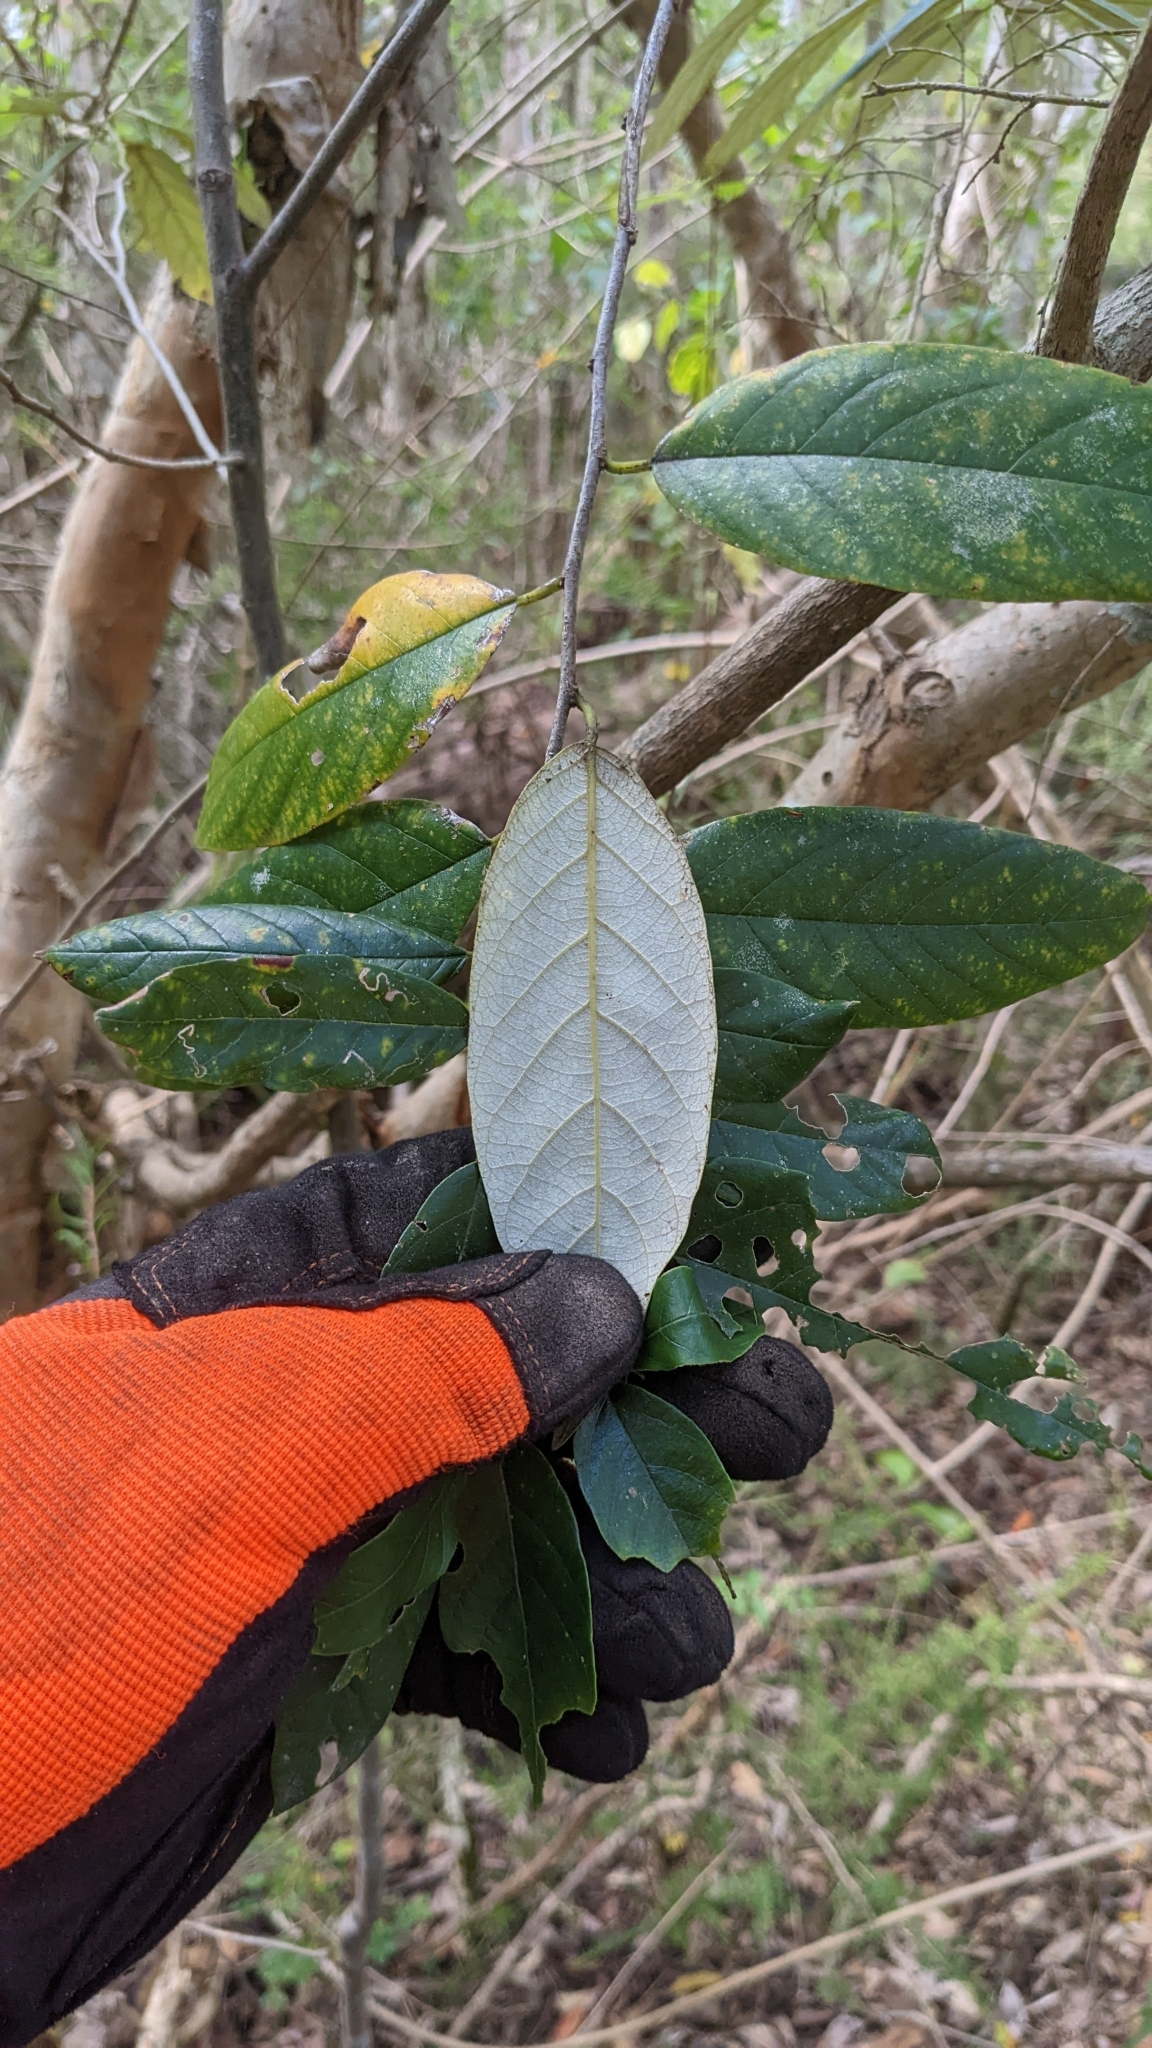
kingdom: Plantae
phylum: Tracheophyta
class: Magnoliopsida
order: Rosales
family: Rhamnaceae
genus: Alphitonia
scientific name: Alphitonia excelsa
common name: Red ash
